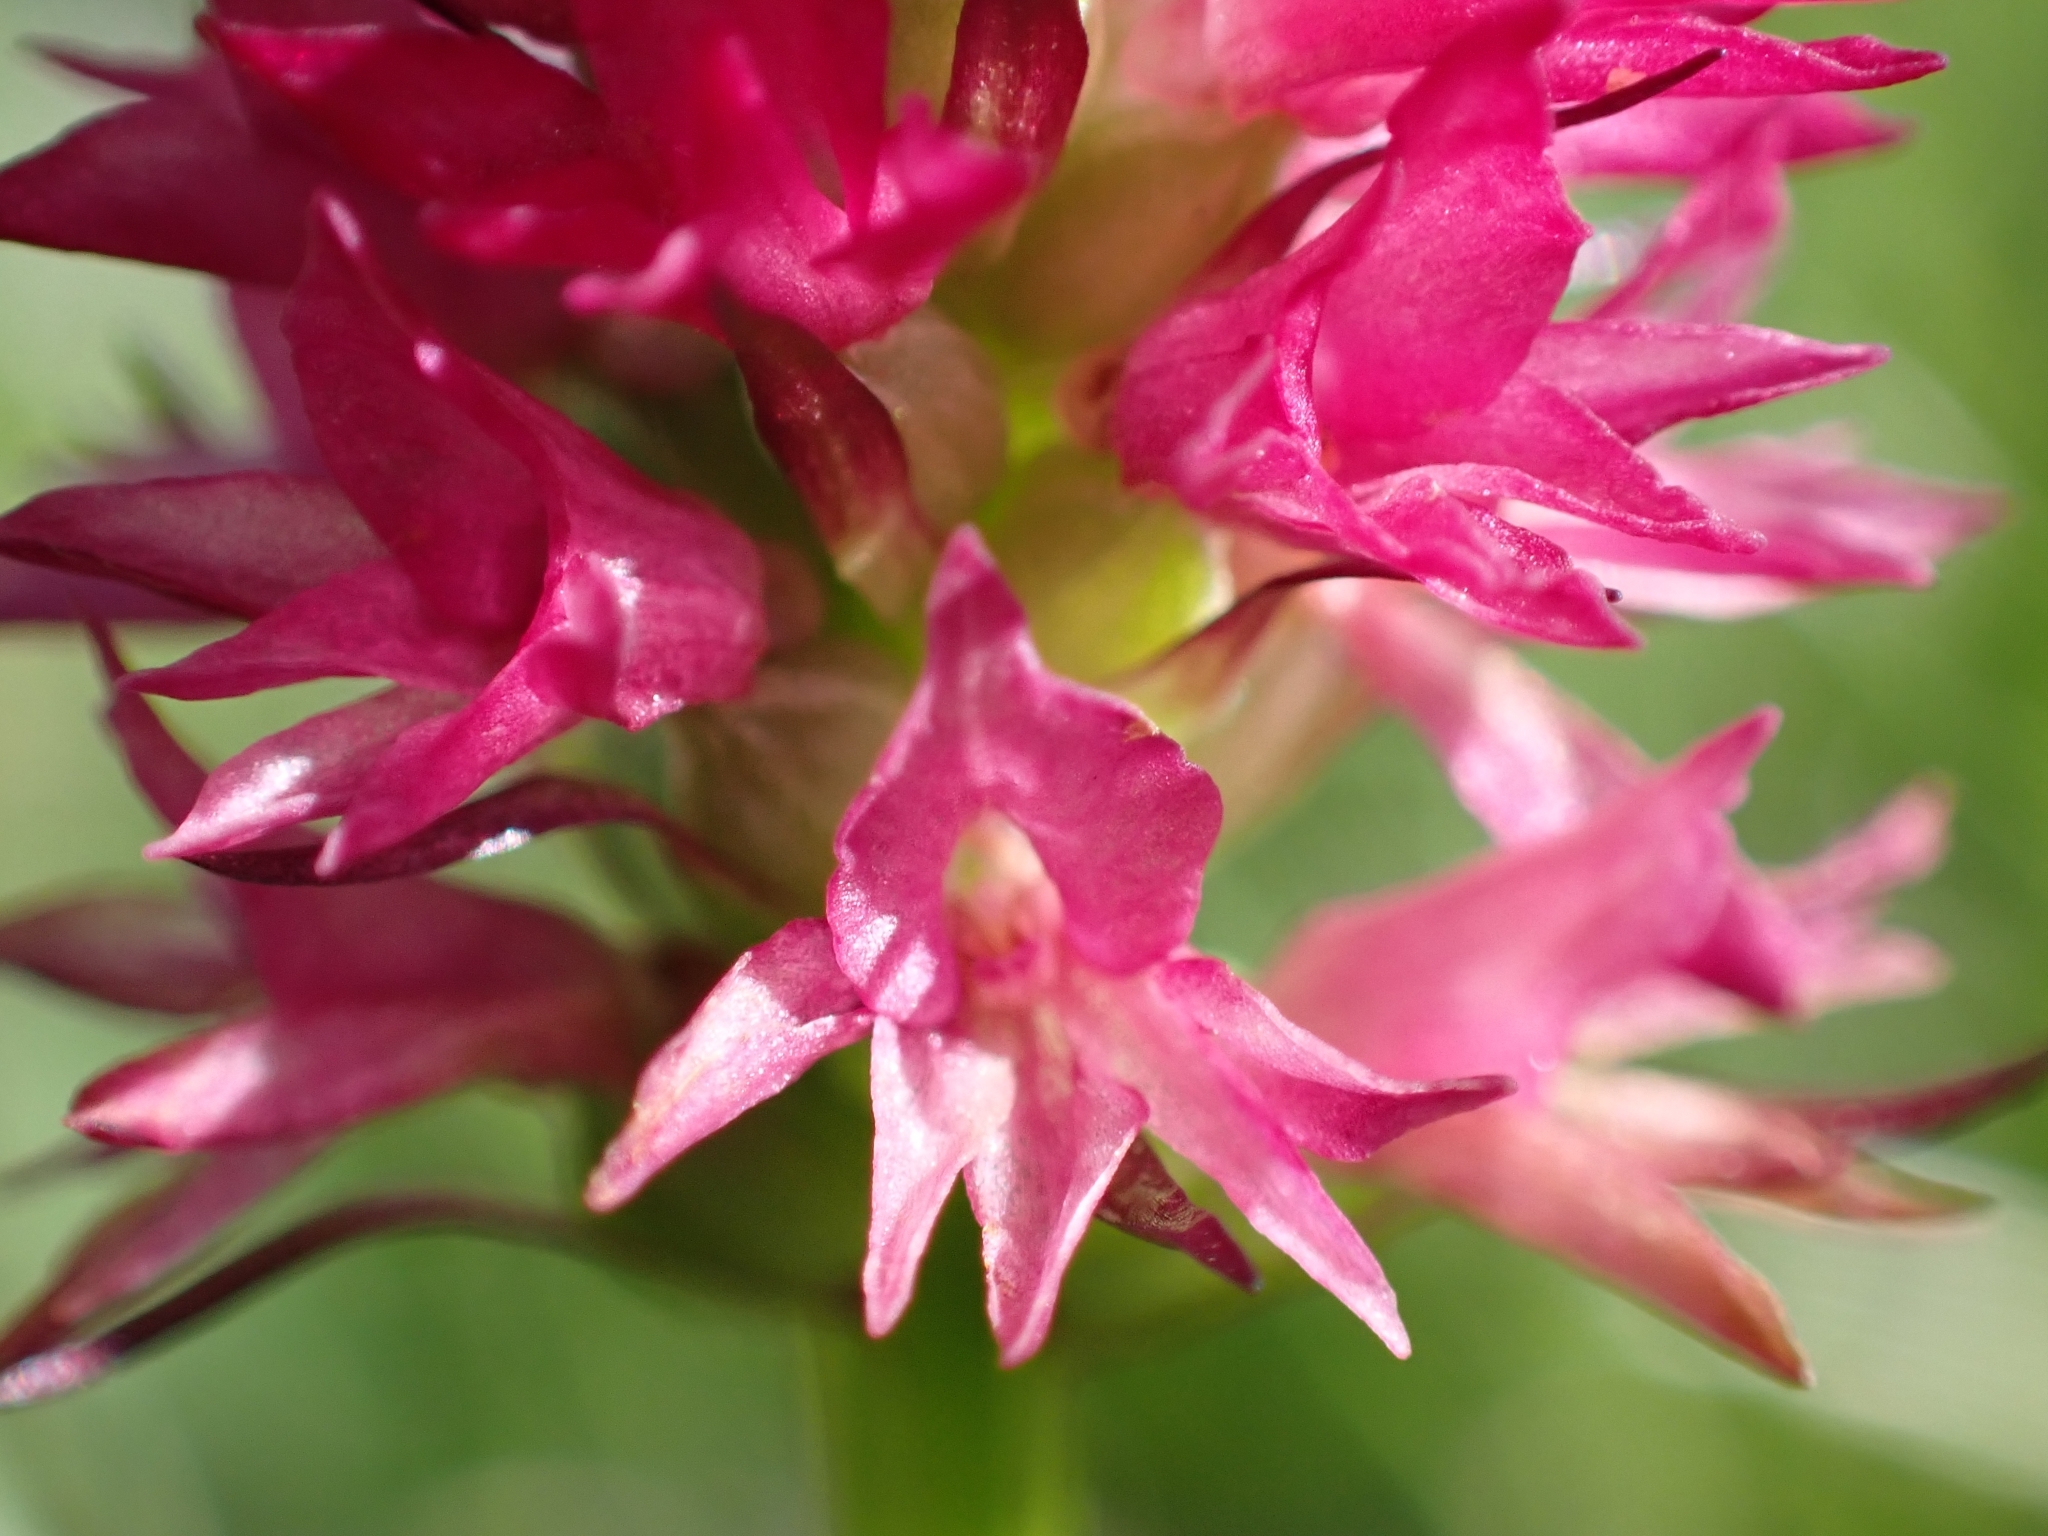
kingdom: Plantae
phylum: Tracheophyta
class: Liliopsida
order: Asparagales
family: Orchidaceae
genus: Gymnadenia
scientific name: Gymnadenia miniata
